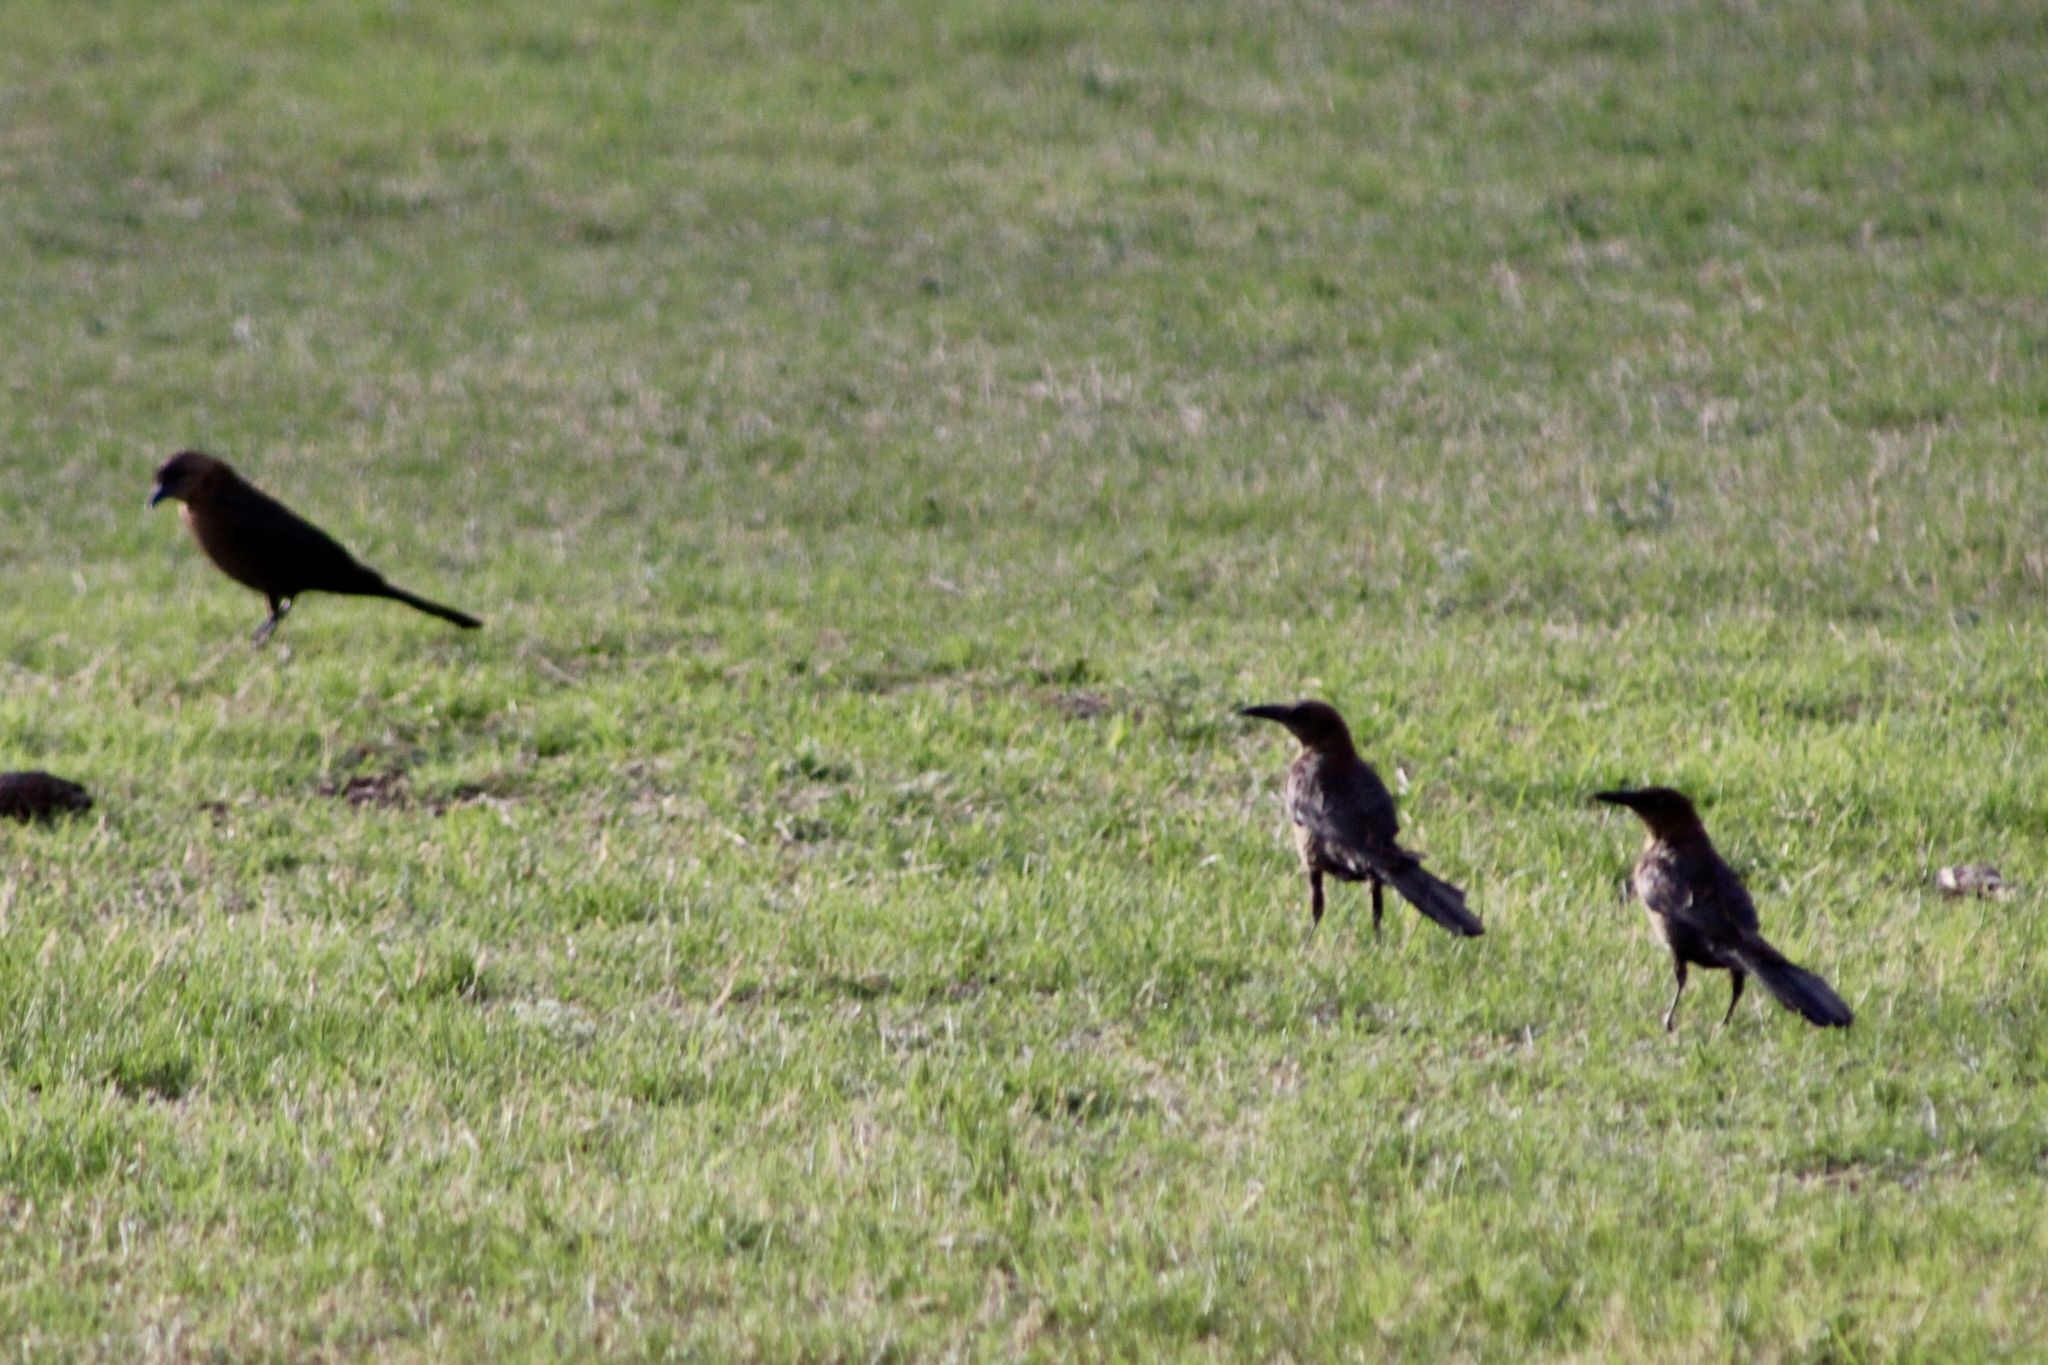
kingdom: Animalia
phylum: Chordata
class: Aves
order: Passeriformes
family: Icteridae
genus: Quiscalus
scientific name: Quiscalus mexicanus
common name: Great-tailed grackle
